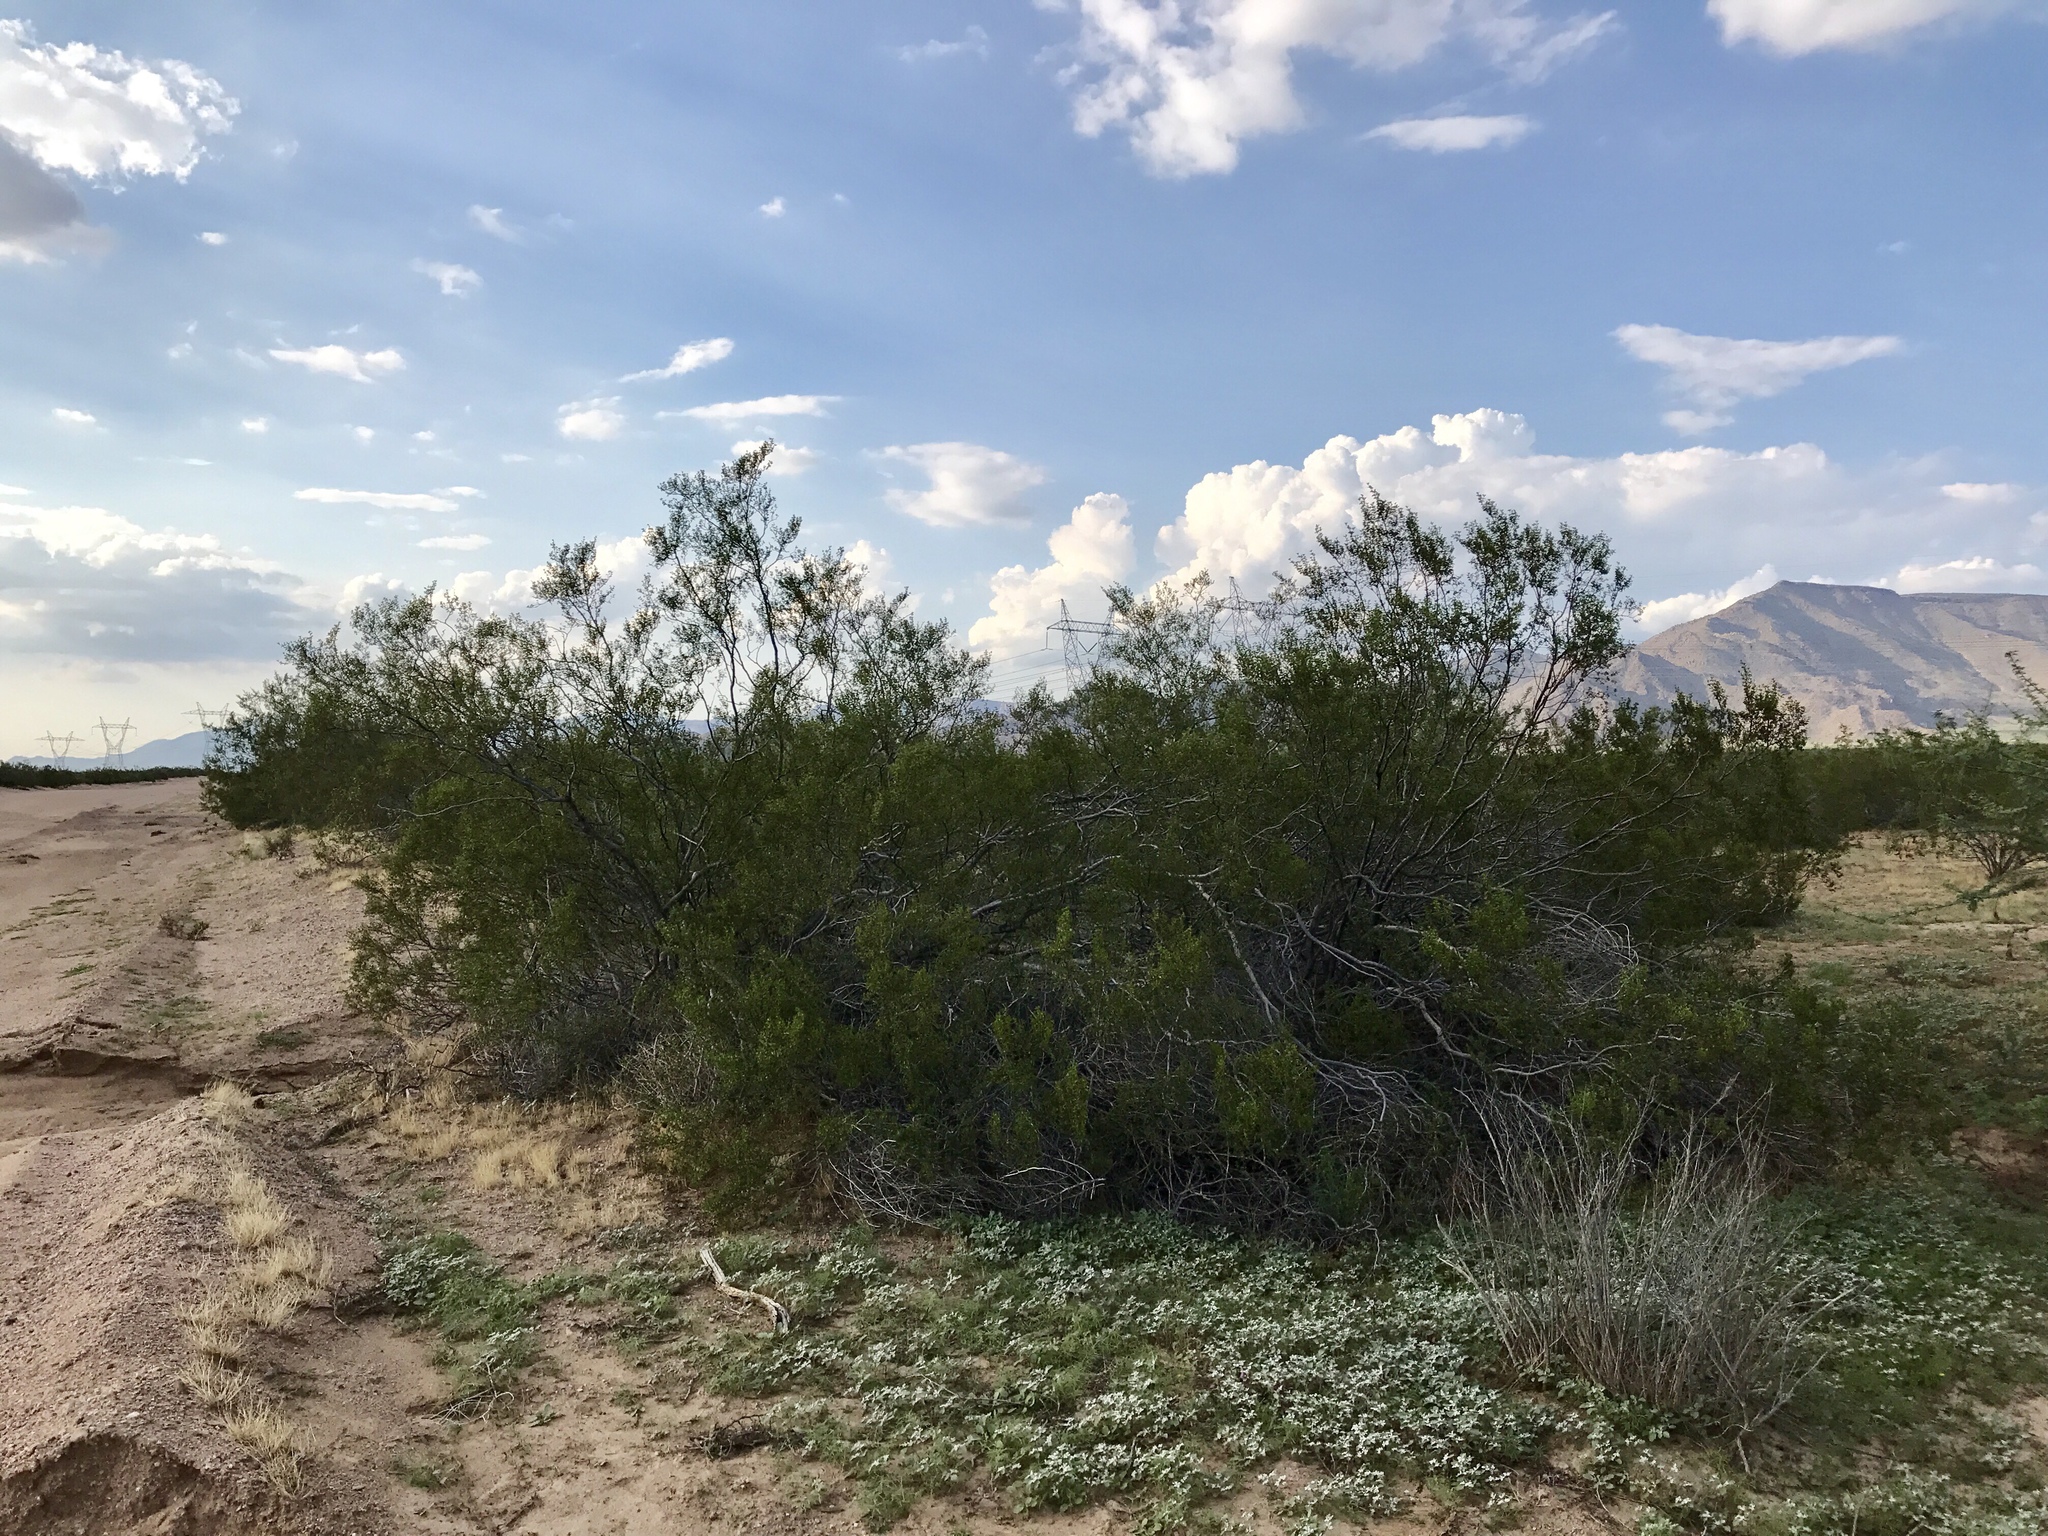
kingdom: Plantae
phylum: Tracheophyta
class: Magnoliopsida
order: Zygophyllales
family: Zygophyllaceae
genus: Larrea
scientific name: Larrea tridentata
